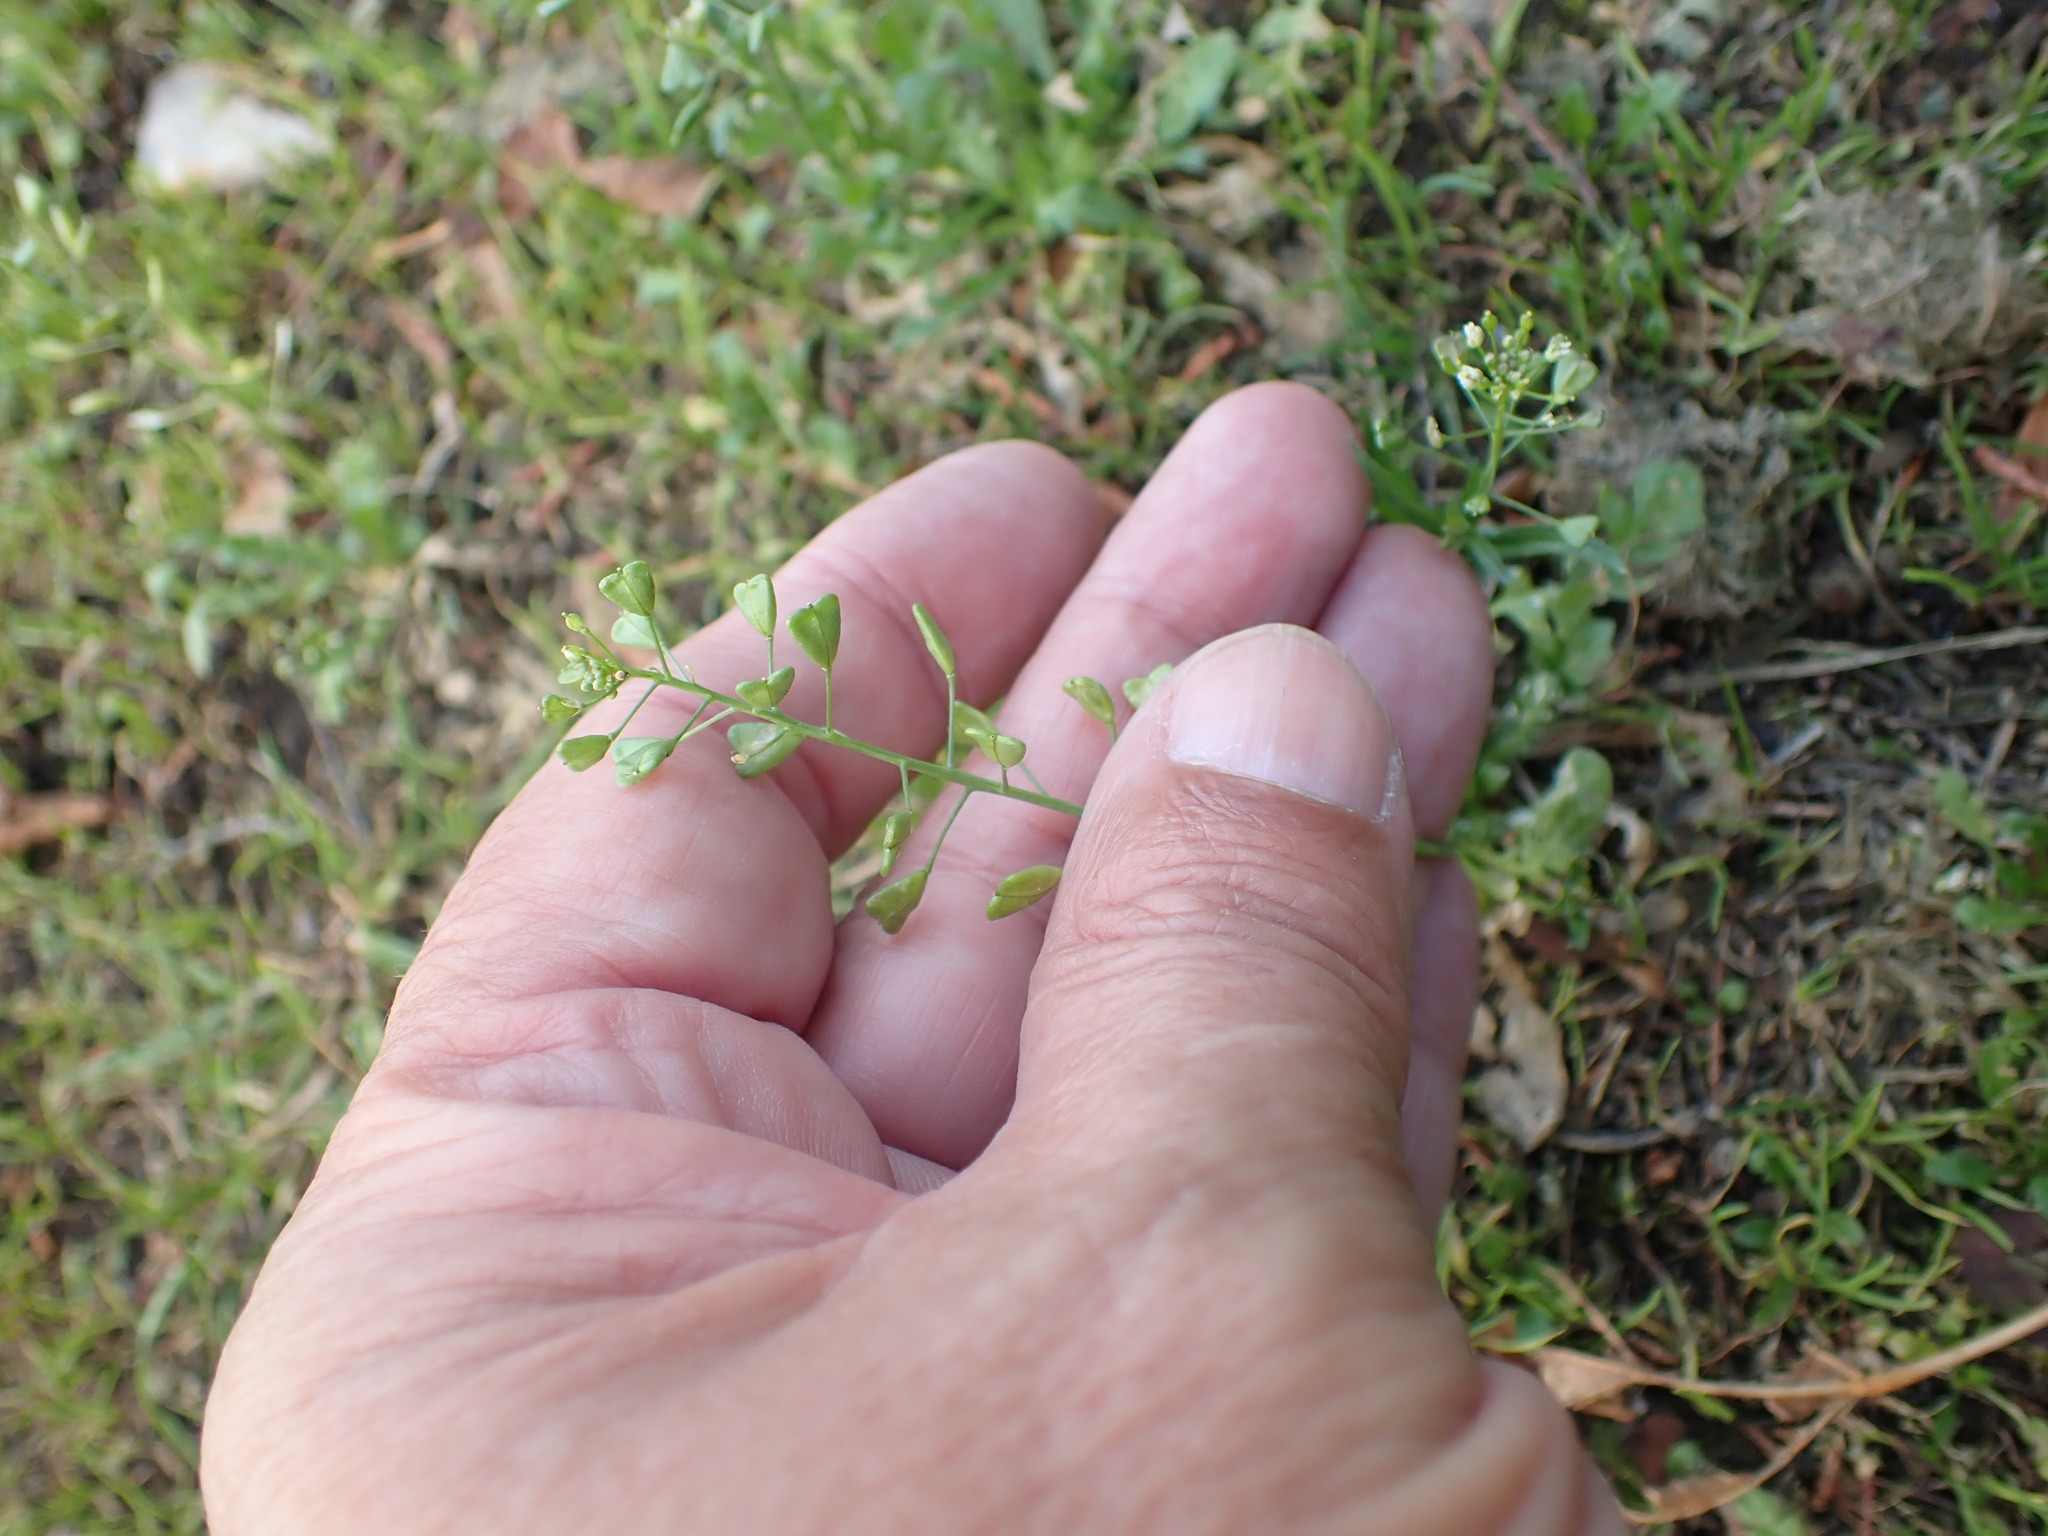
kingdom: Plantae
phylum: Tracheophyta
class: Magnoliopsida
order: Brassicales
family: Brassicaceae
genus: Capsella
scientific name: Capsella bursa-pastoris
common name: Shepherd's purse
